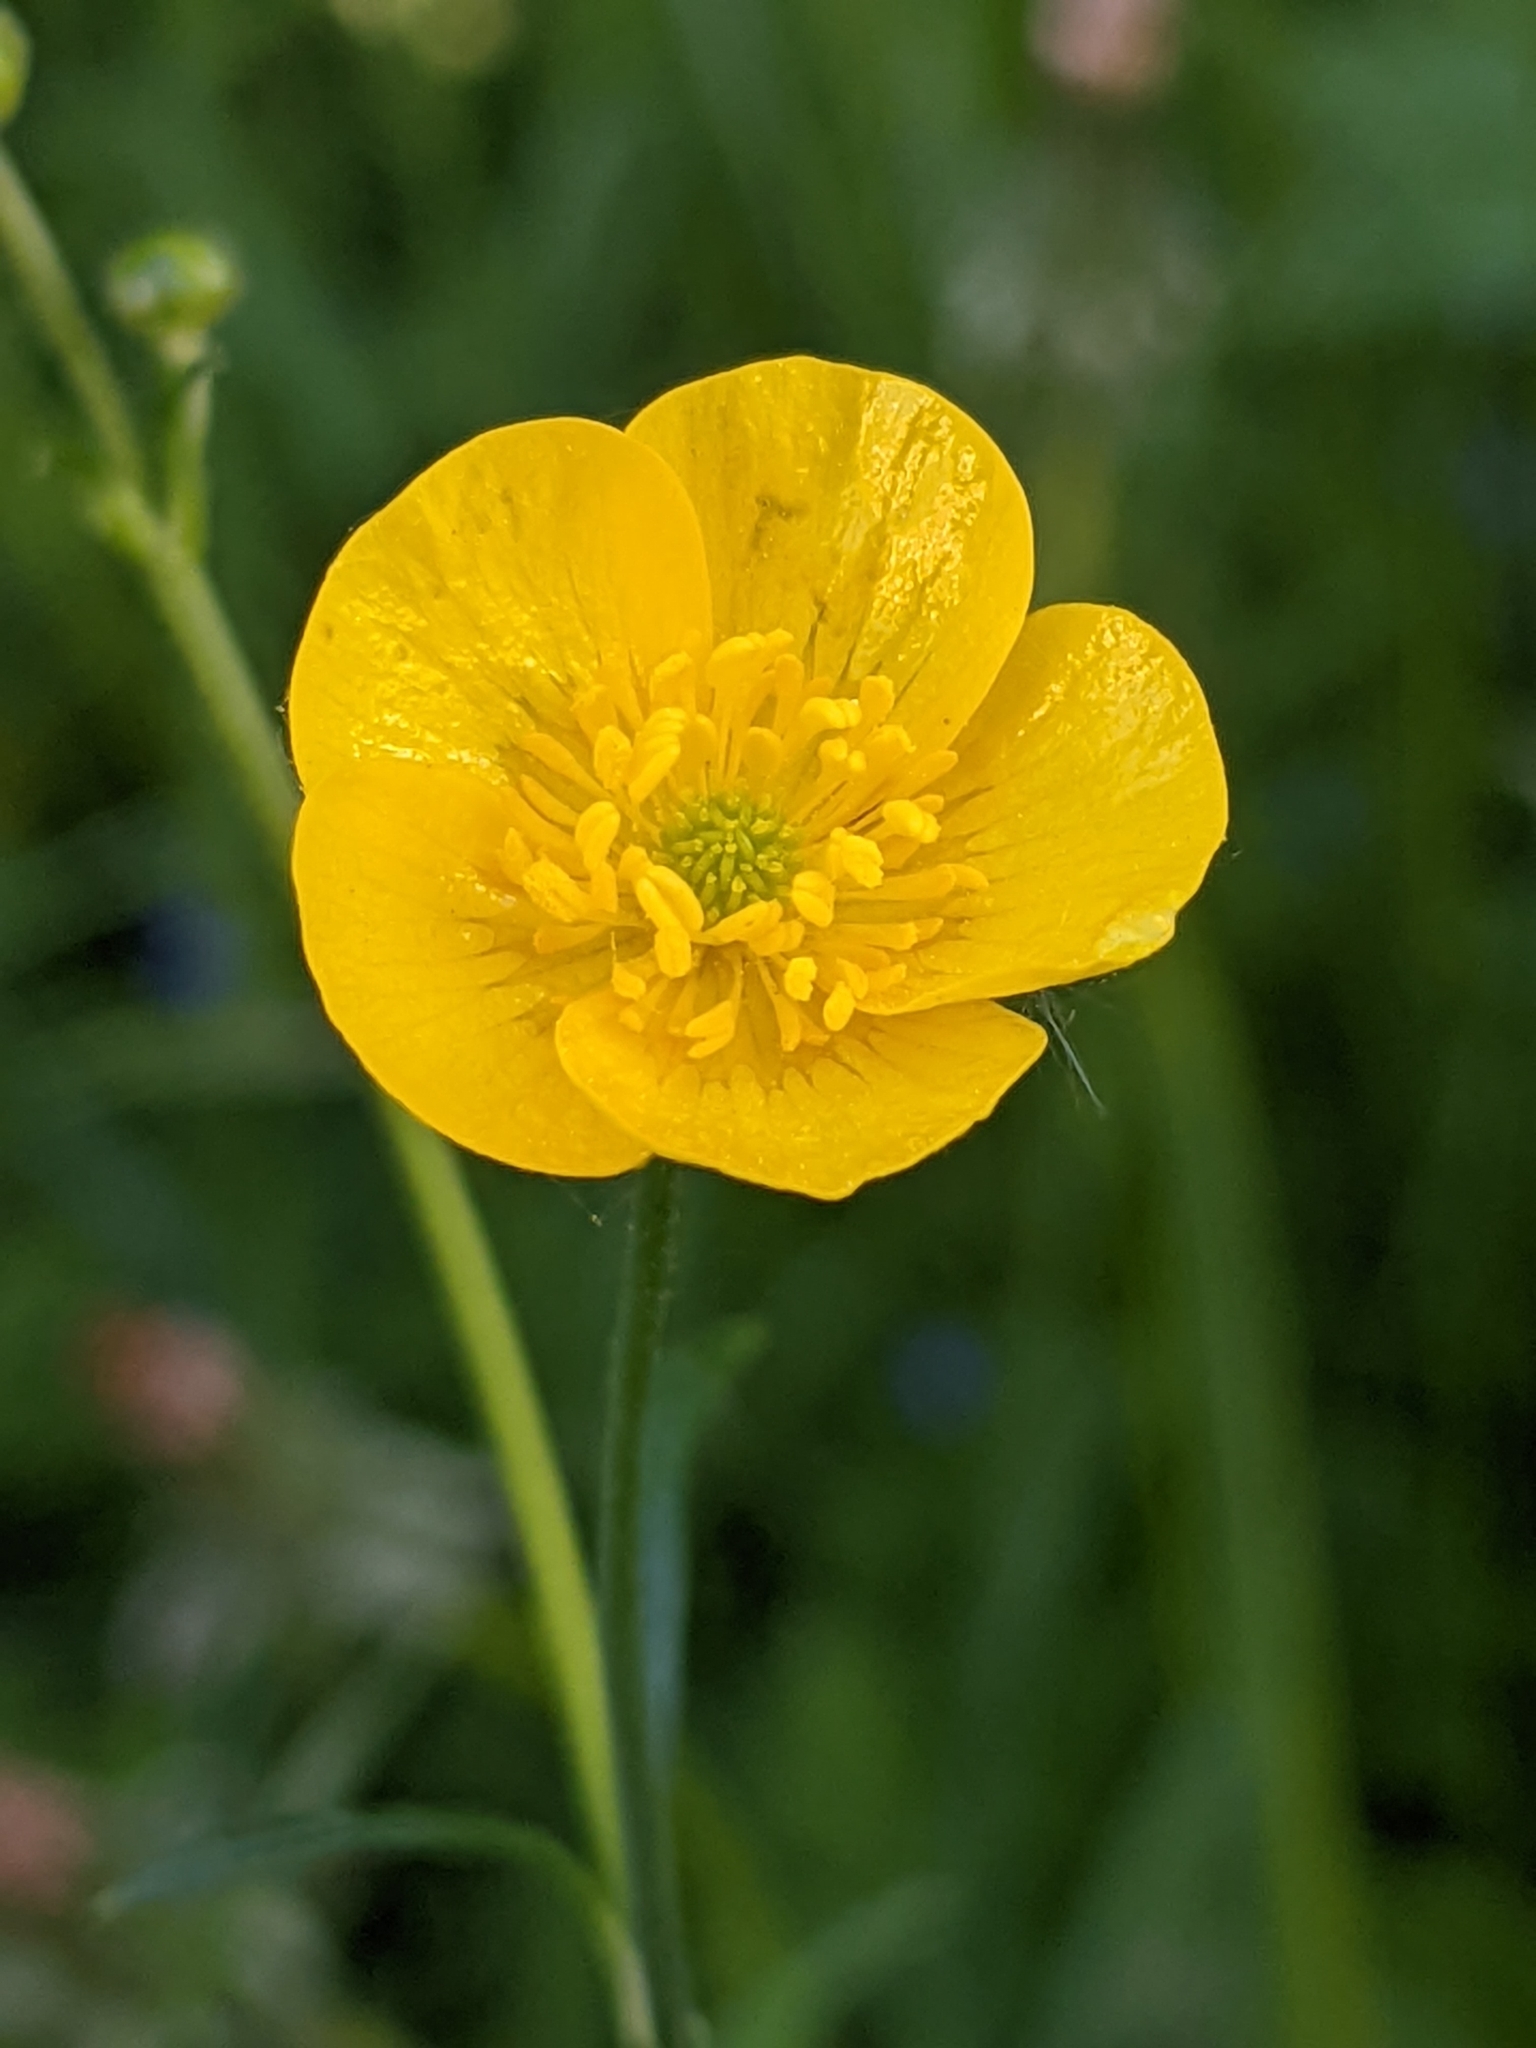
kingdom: Plantae
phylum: Tracheophyta
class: Magnoliopsida
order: Ranunculales
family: Ranunculaceae
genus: Ranunculus
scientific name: Ranunculus acris
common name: Meadow buttercup
